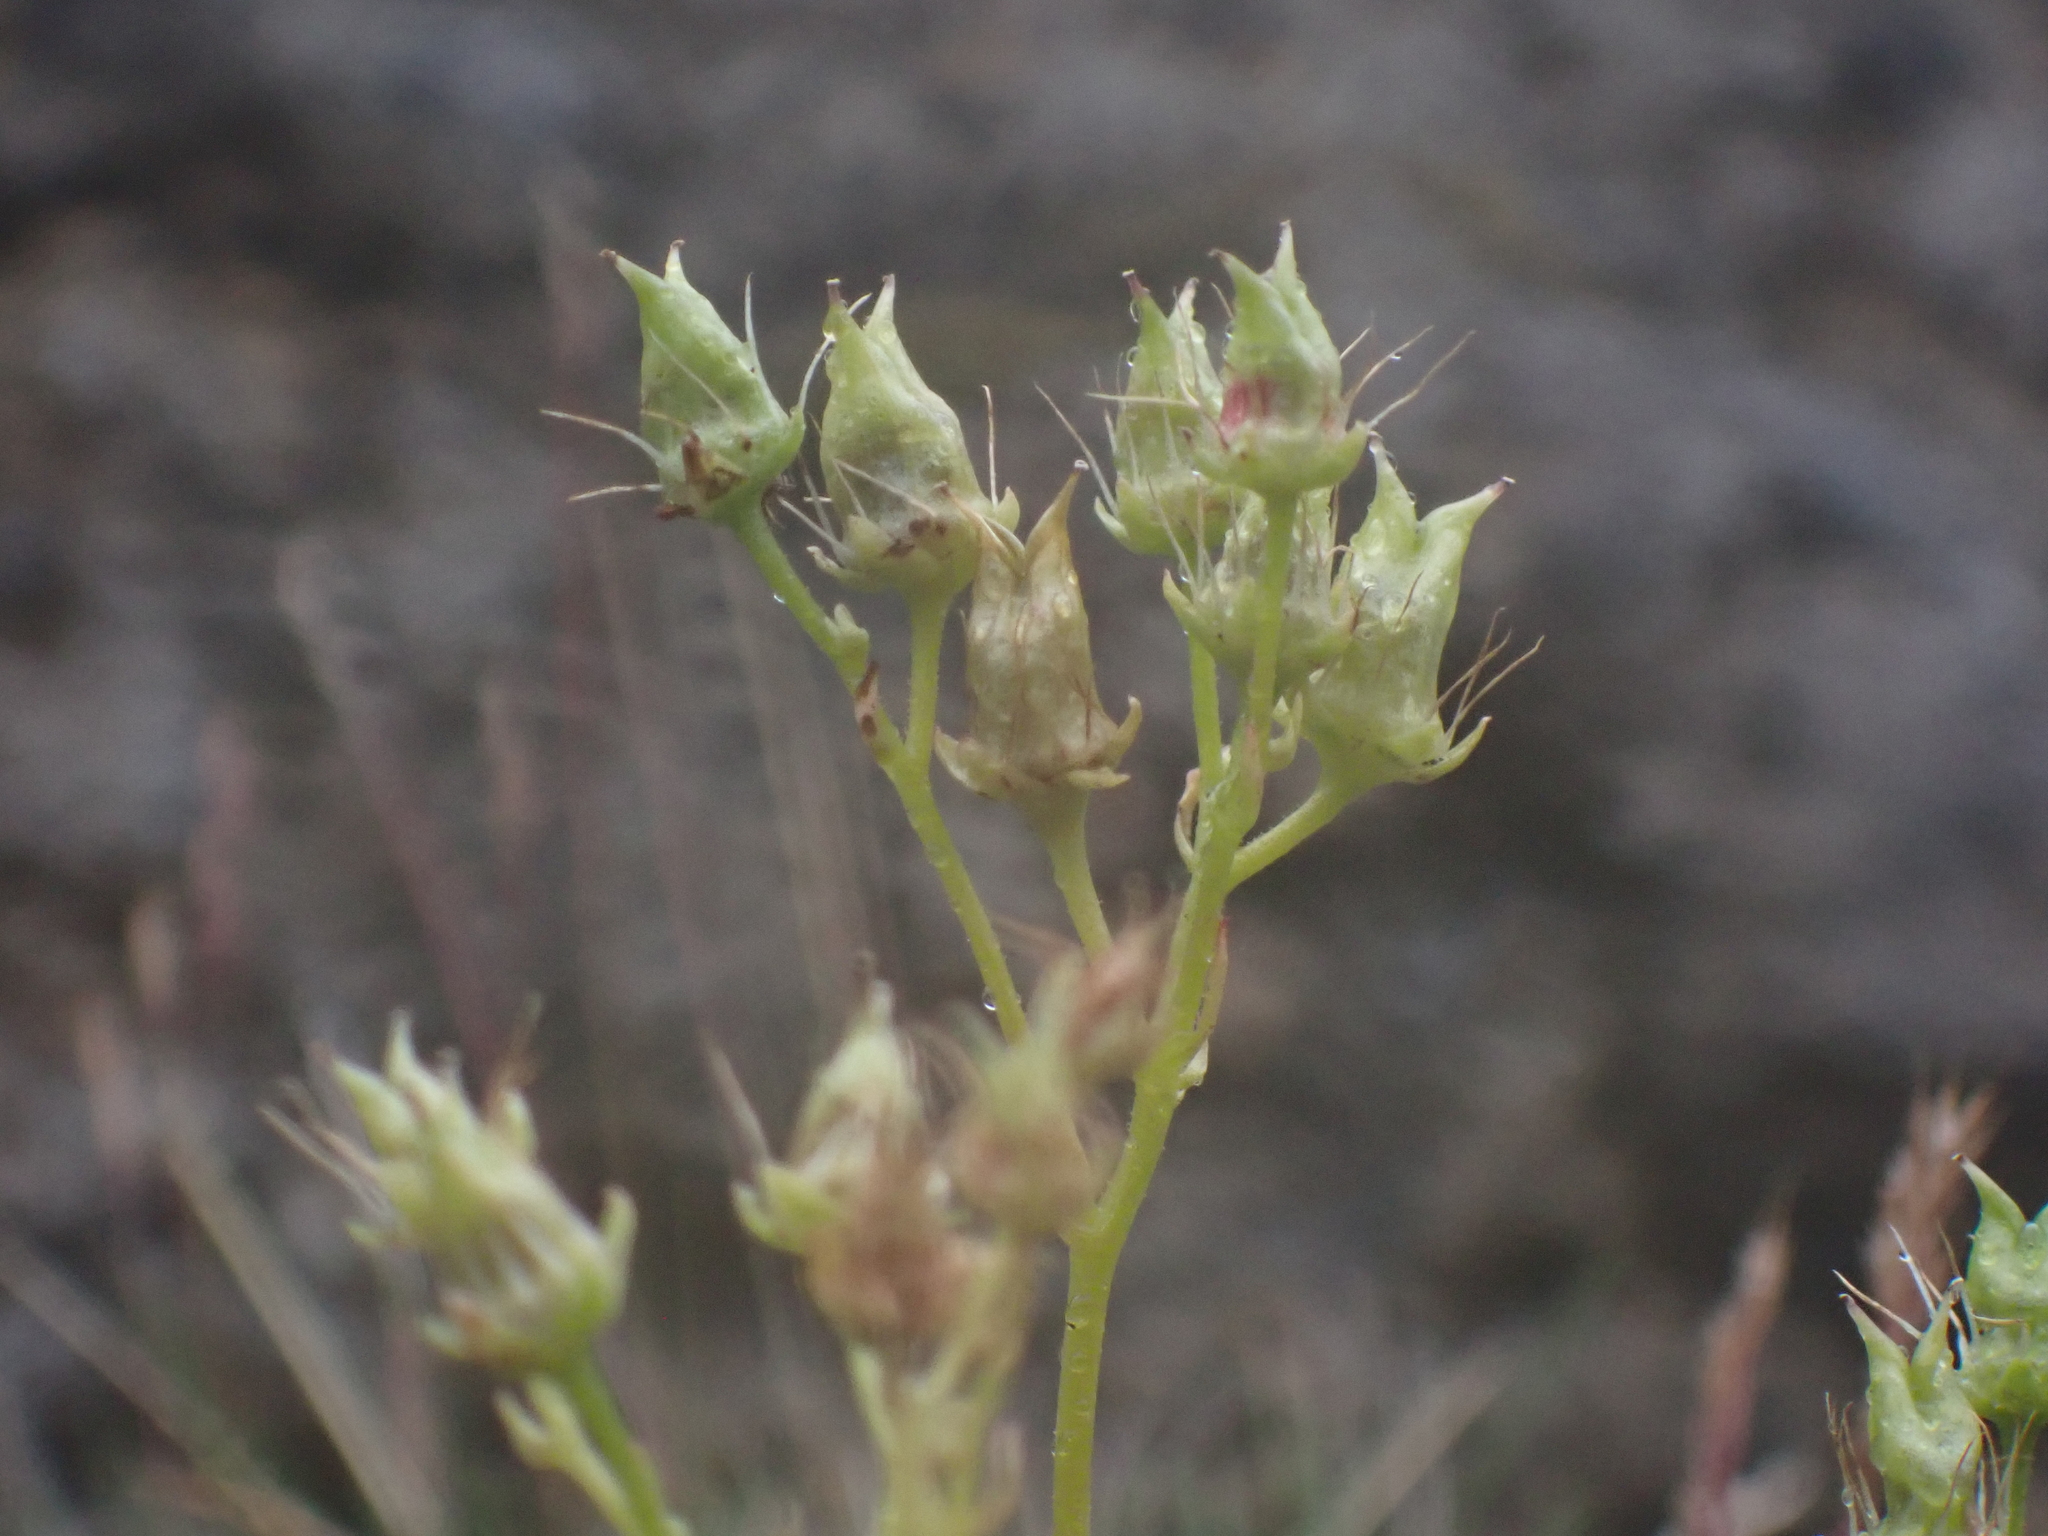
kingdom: Plantae
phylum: Tracheophyta
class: Magnoliopsida
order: Saxifragales
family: Saxifragaceae
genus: Saxifraga
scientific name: Saxifraga tricuspidata
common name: Prickly saxifrage
